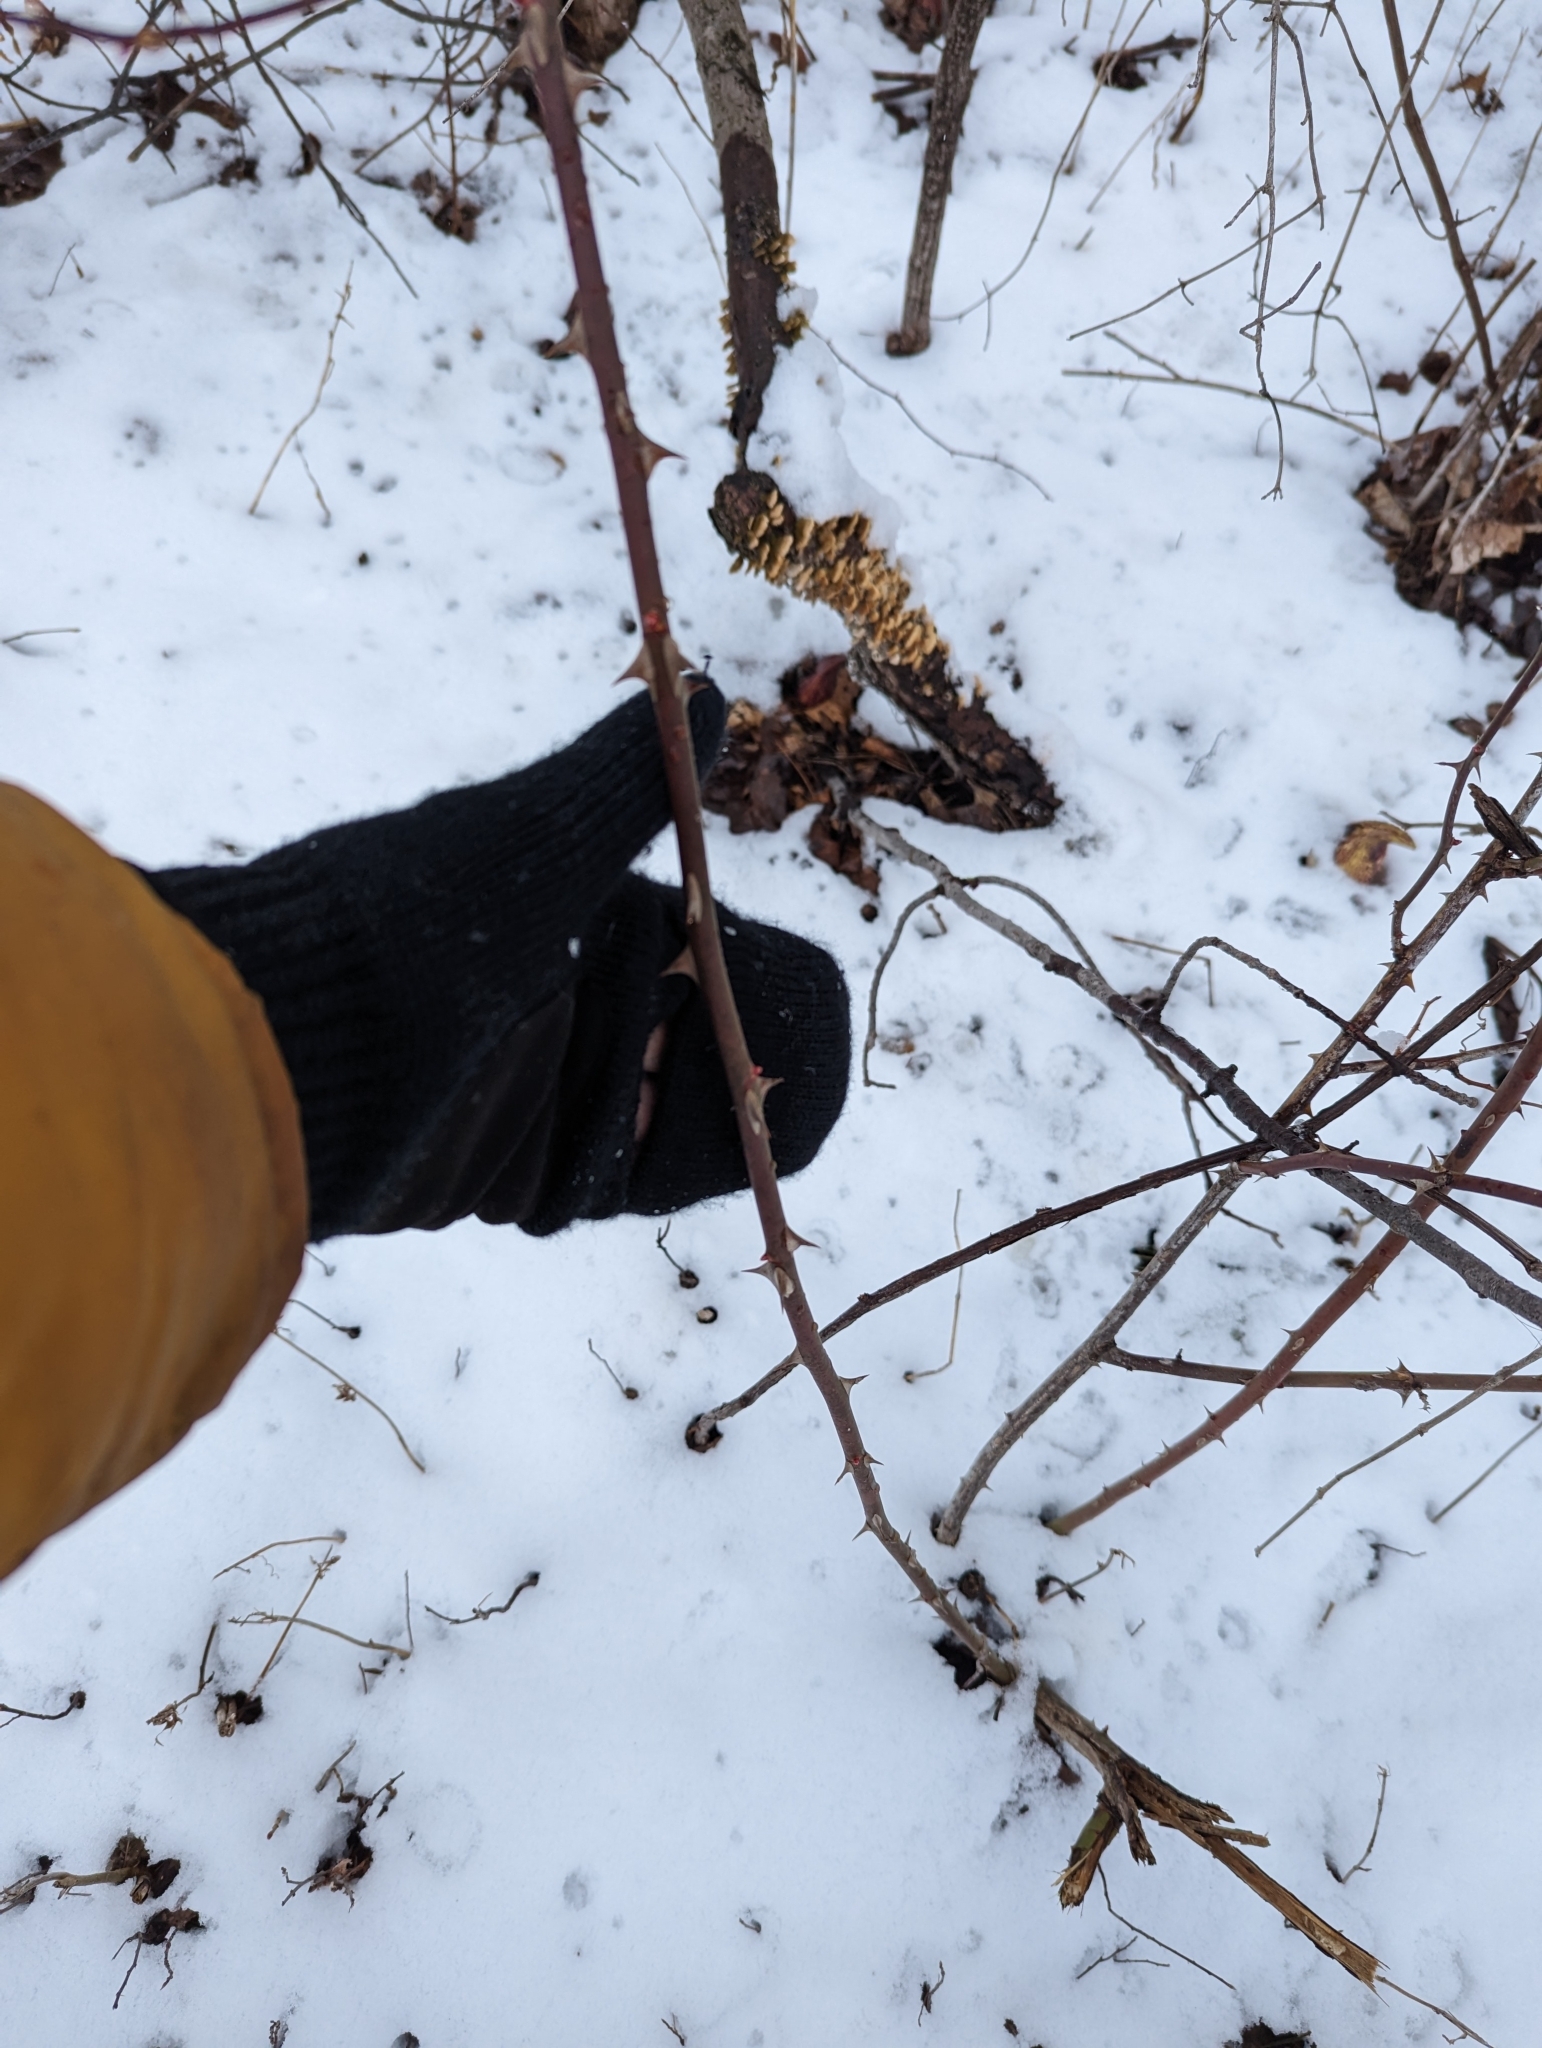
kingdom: Plantae
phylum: Tracheophyta
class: Magnoliopsida
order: Rosales
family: Rosaceae
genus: Rosa
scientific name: Rosa multiflora
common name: Multiflora rose
